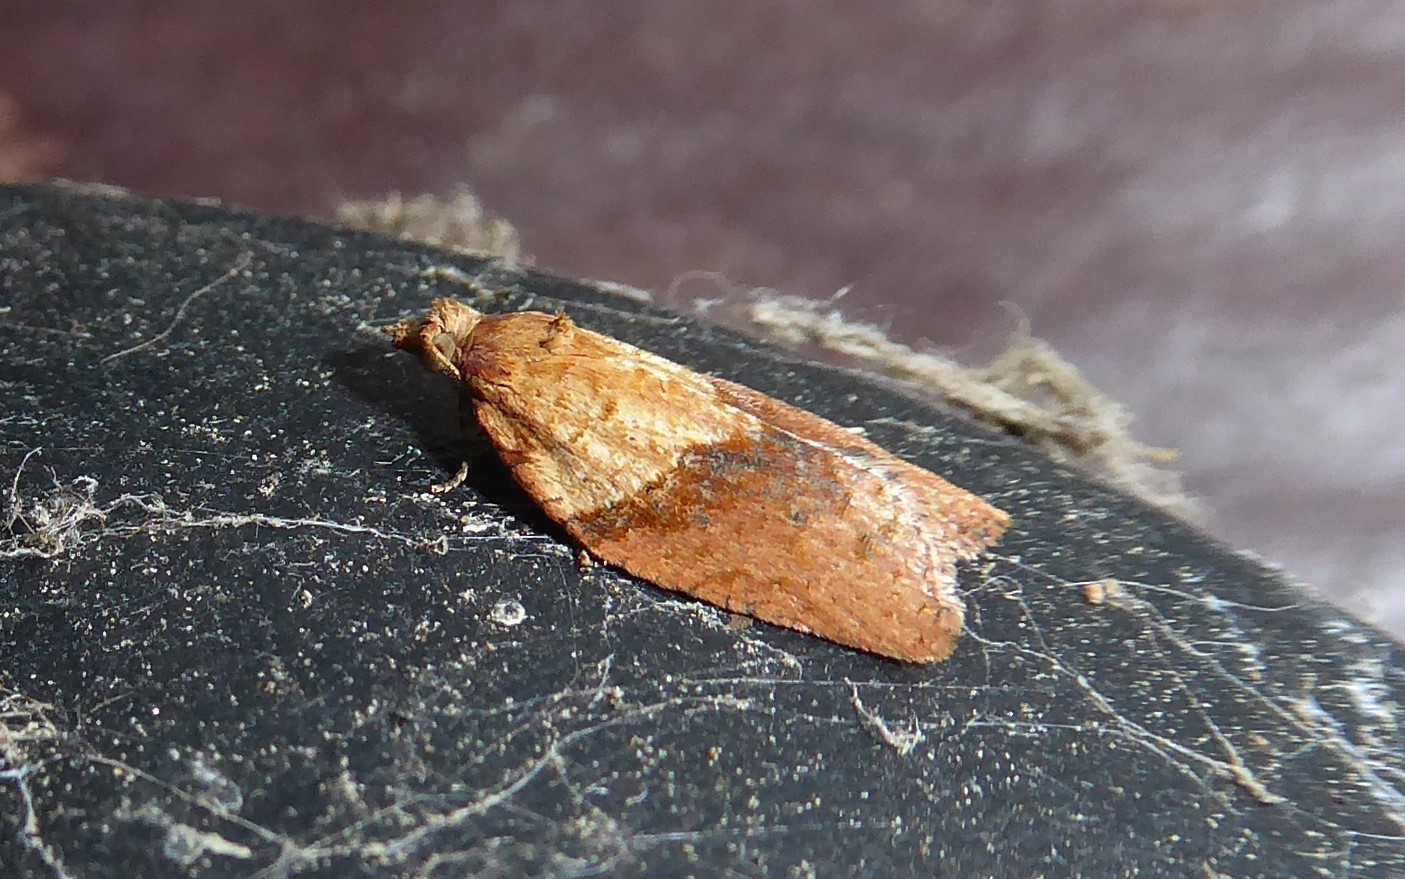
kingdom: Animalia
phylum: Arthropoda
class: Insecta
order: Lepidoptera
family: Tortricidae
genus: Epiphyas
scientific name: Epiphyas postvittana
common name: Light brown apple moth
